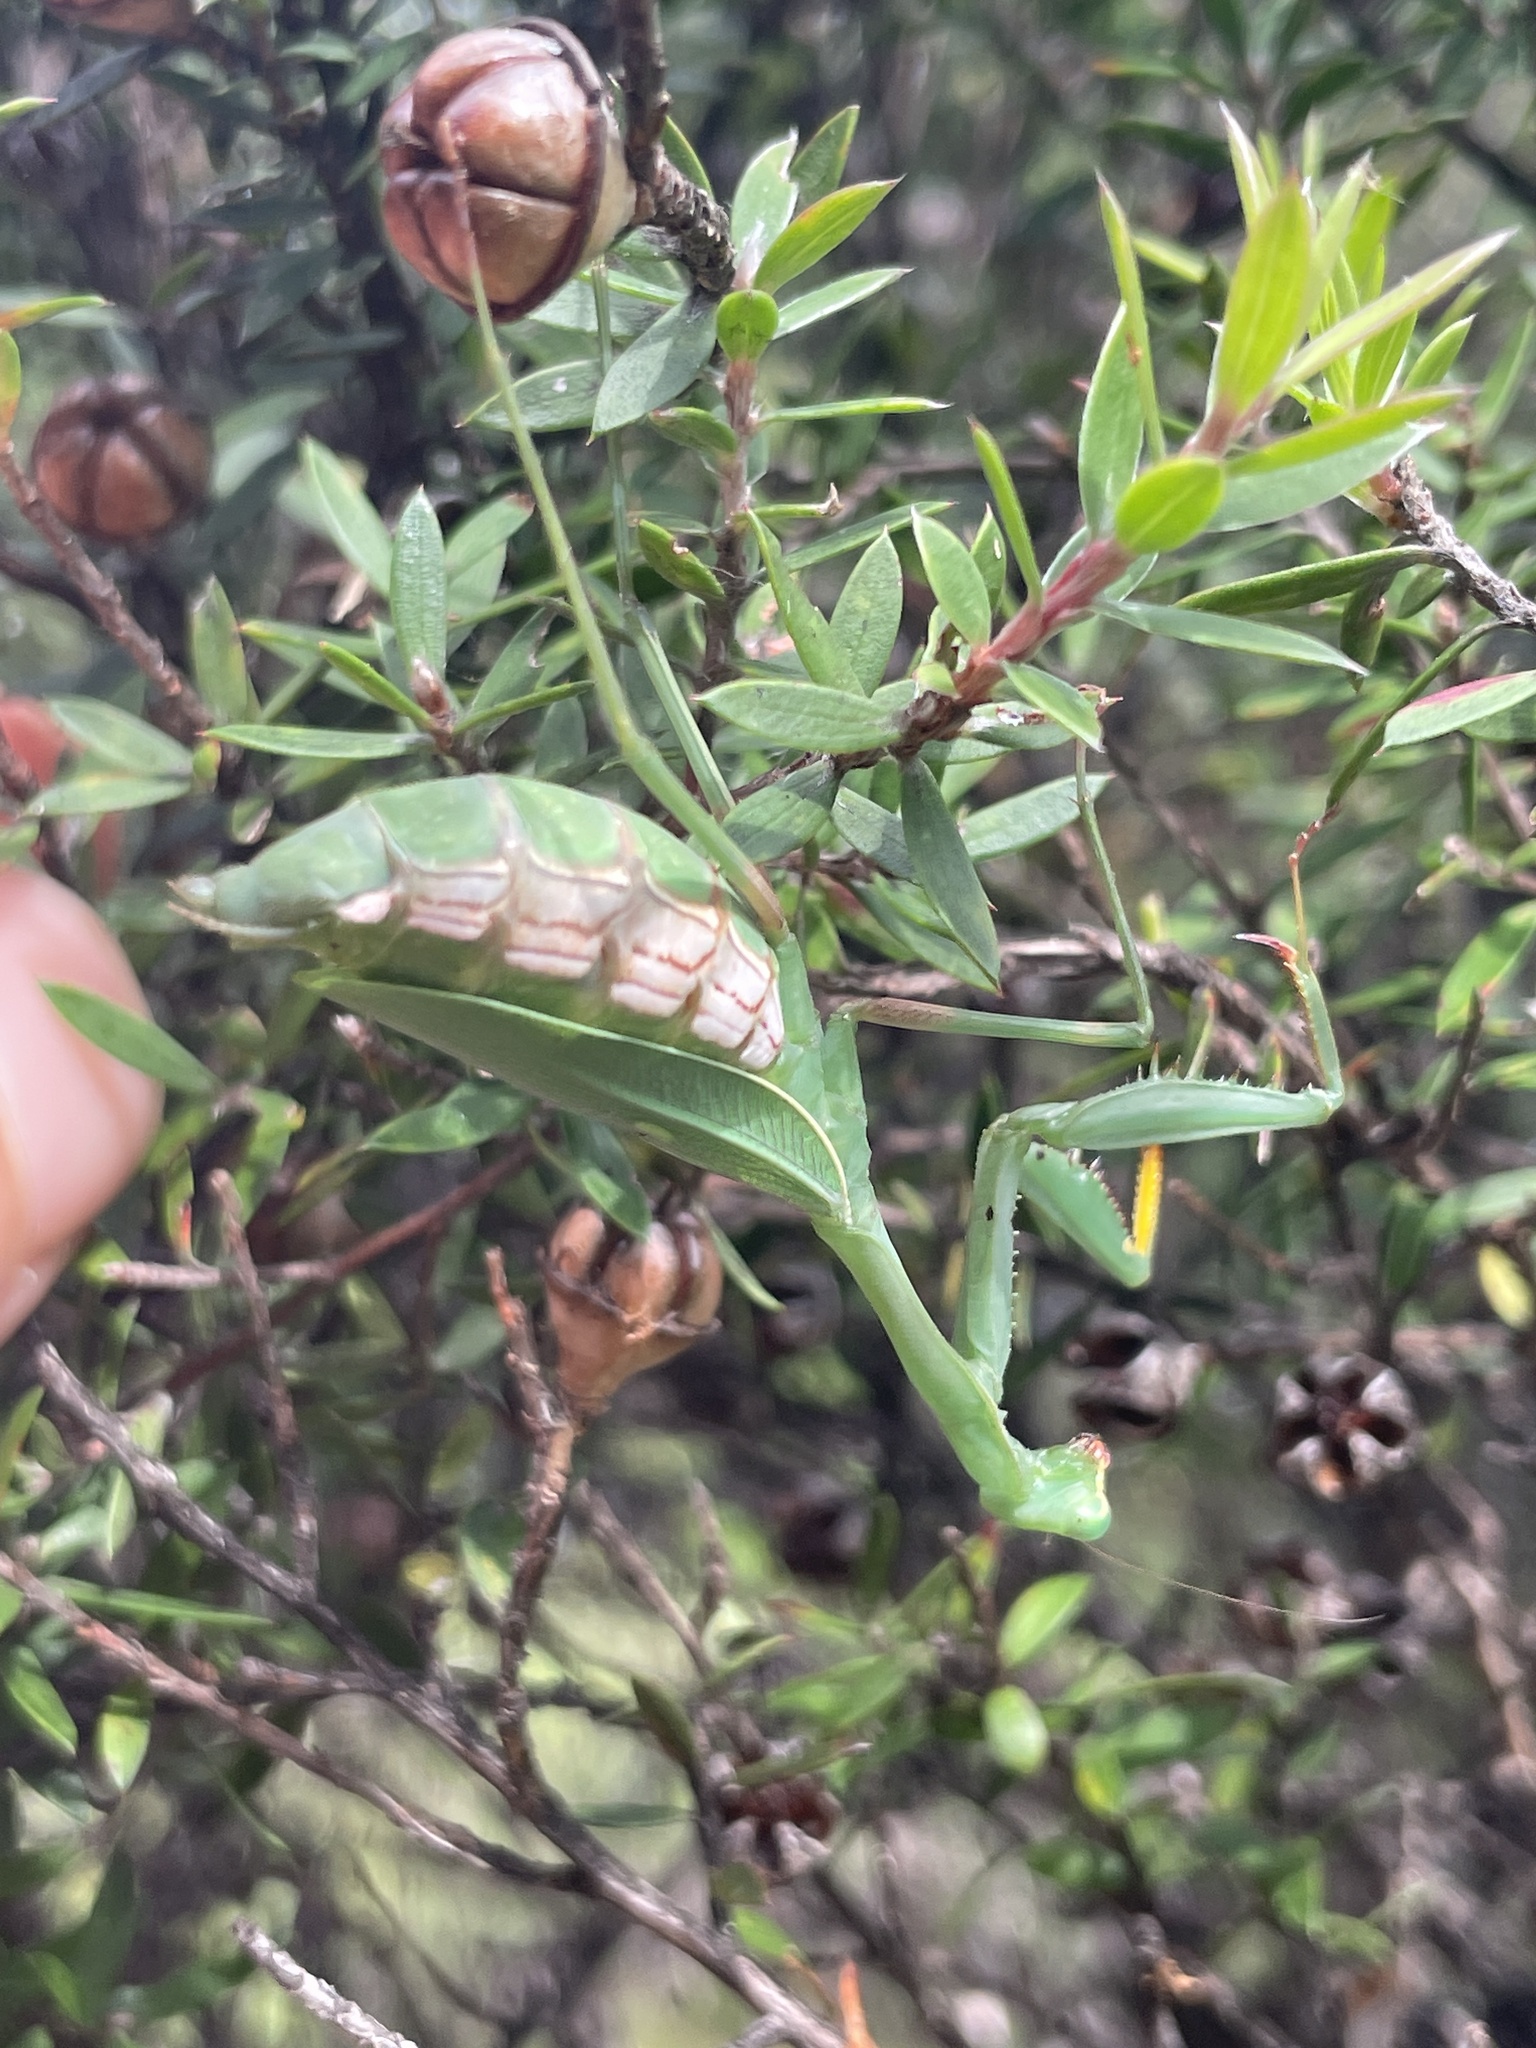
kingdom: Animalia
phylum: Arthropoda
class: Insecta
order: Mantodea
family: Miomantidae
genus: Miomantis
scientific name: Miomantis caffra
